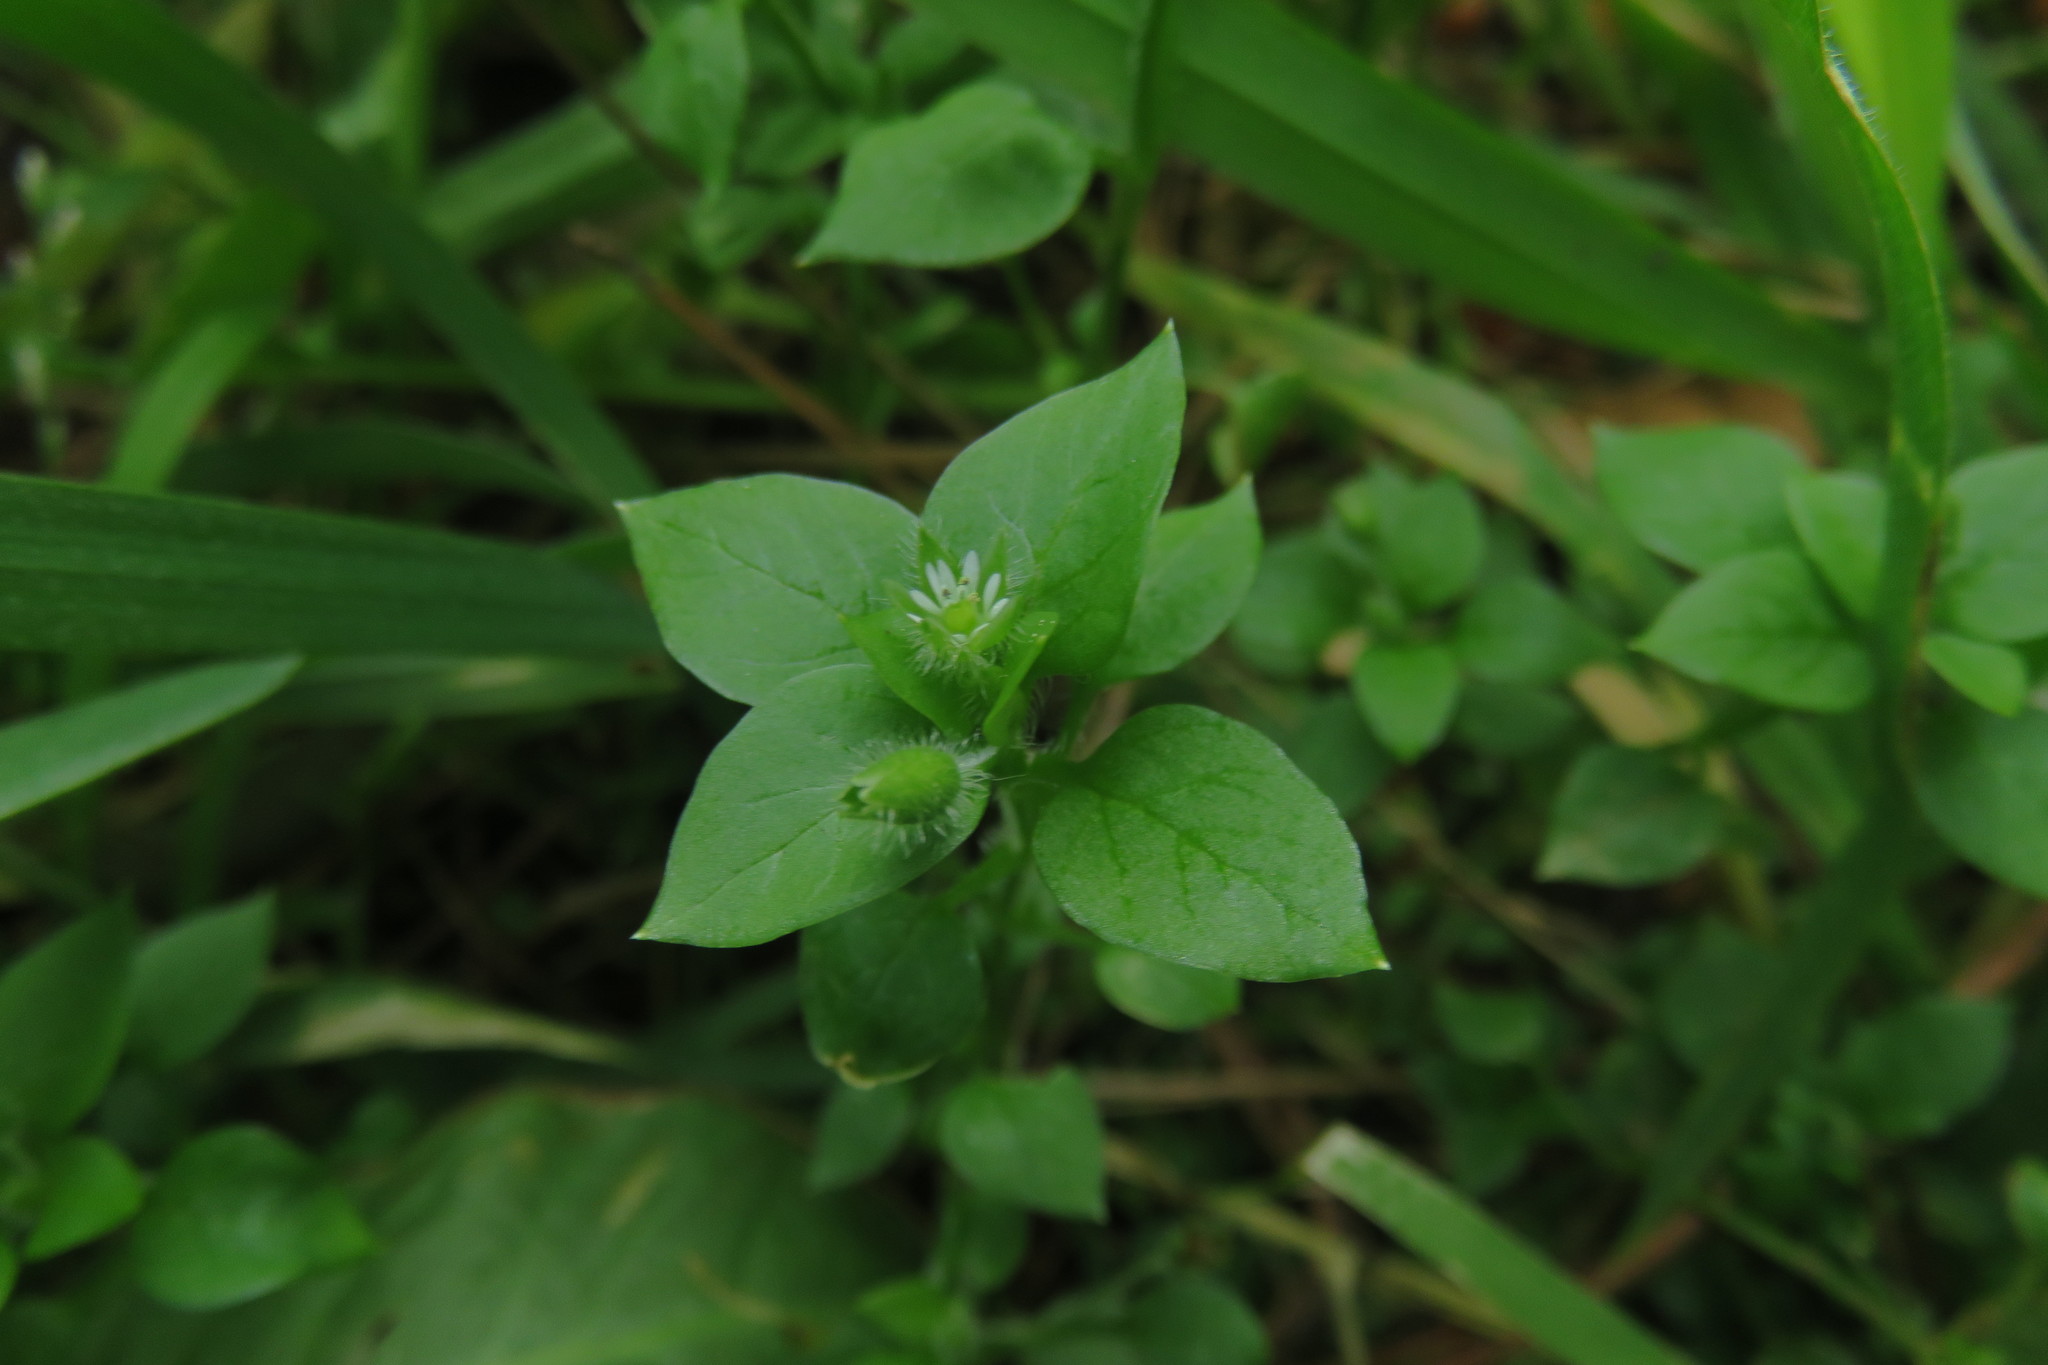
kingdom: Plantae
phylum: Tracheophyta
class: Magnoliopsida
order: Caryophyllales
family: Caryophyllaceae
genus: Stellaria
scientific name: Stellaria media
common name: Common chickweed
